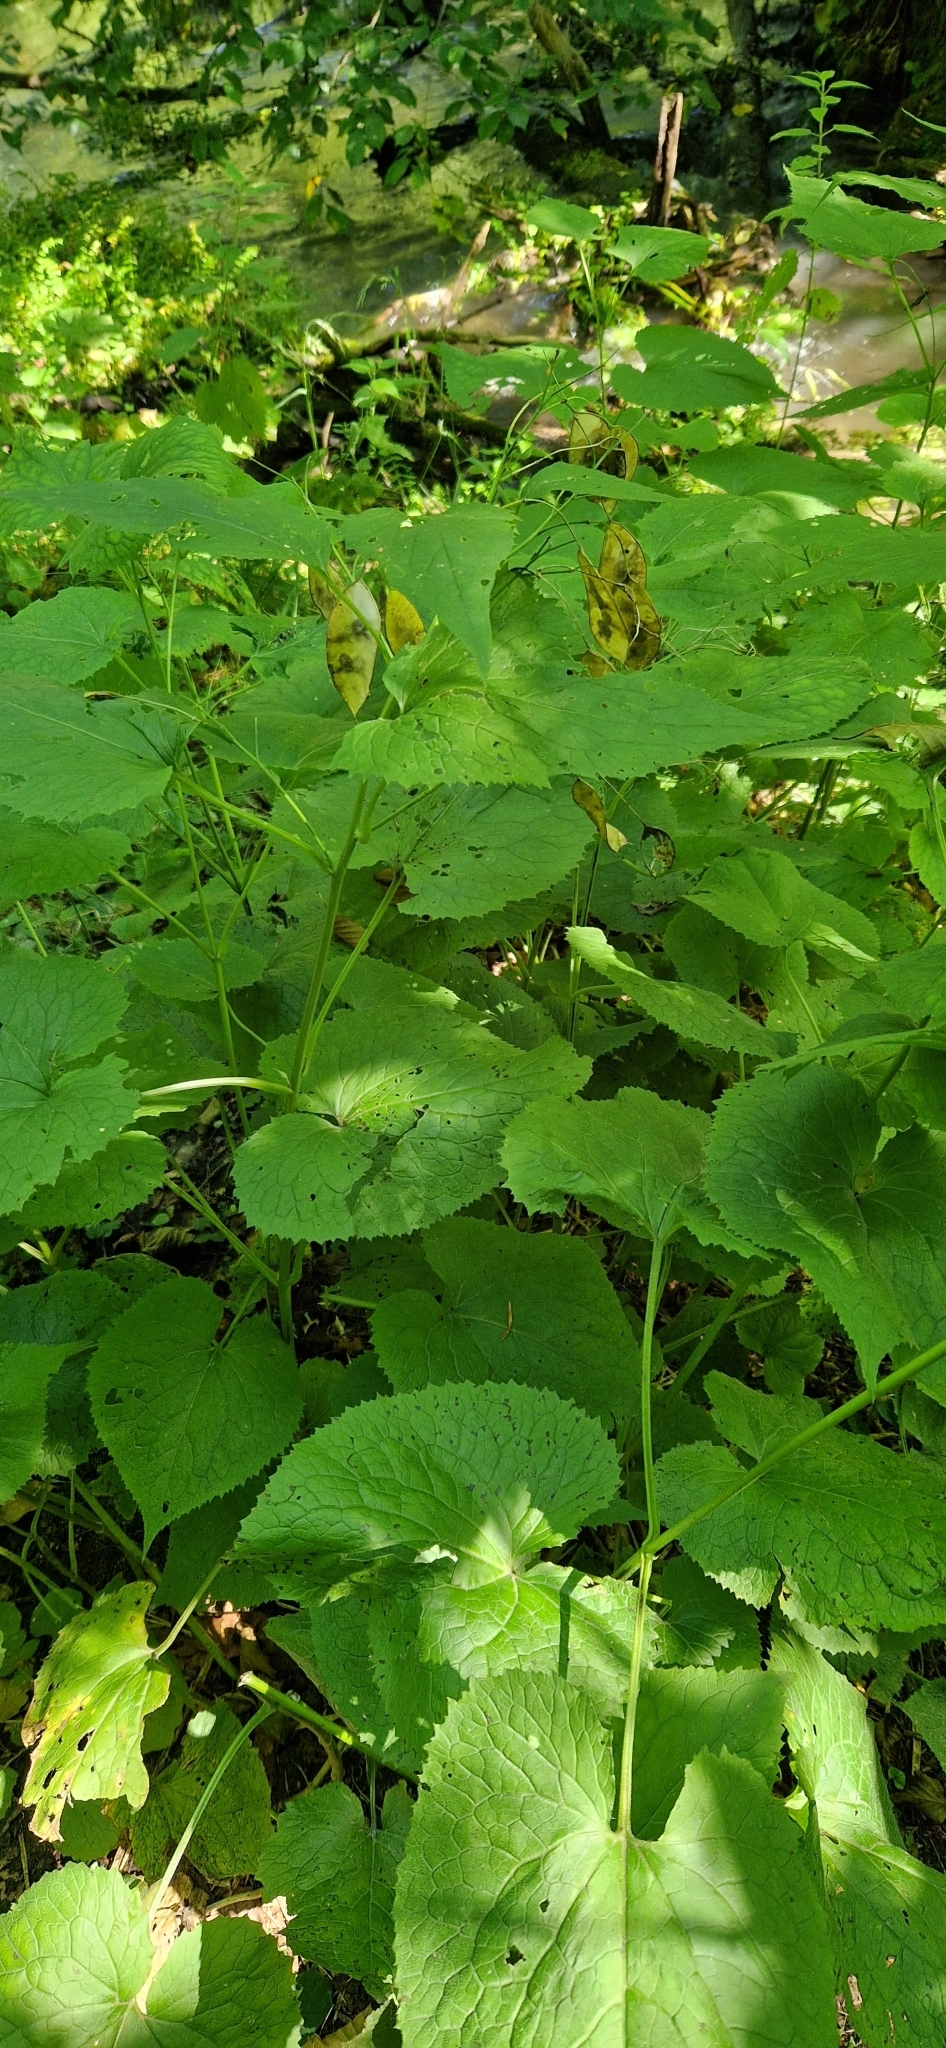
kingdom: Plantae
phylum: Tracheophyta
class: Magnoliopsida
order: Brassicales
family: Brassicaceae
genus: Lunaria
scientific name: Lunaria rediviva
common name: Perennial honesty
